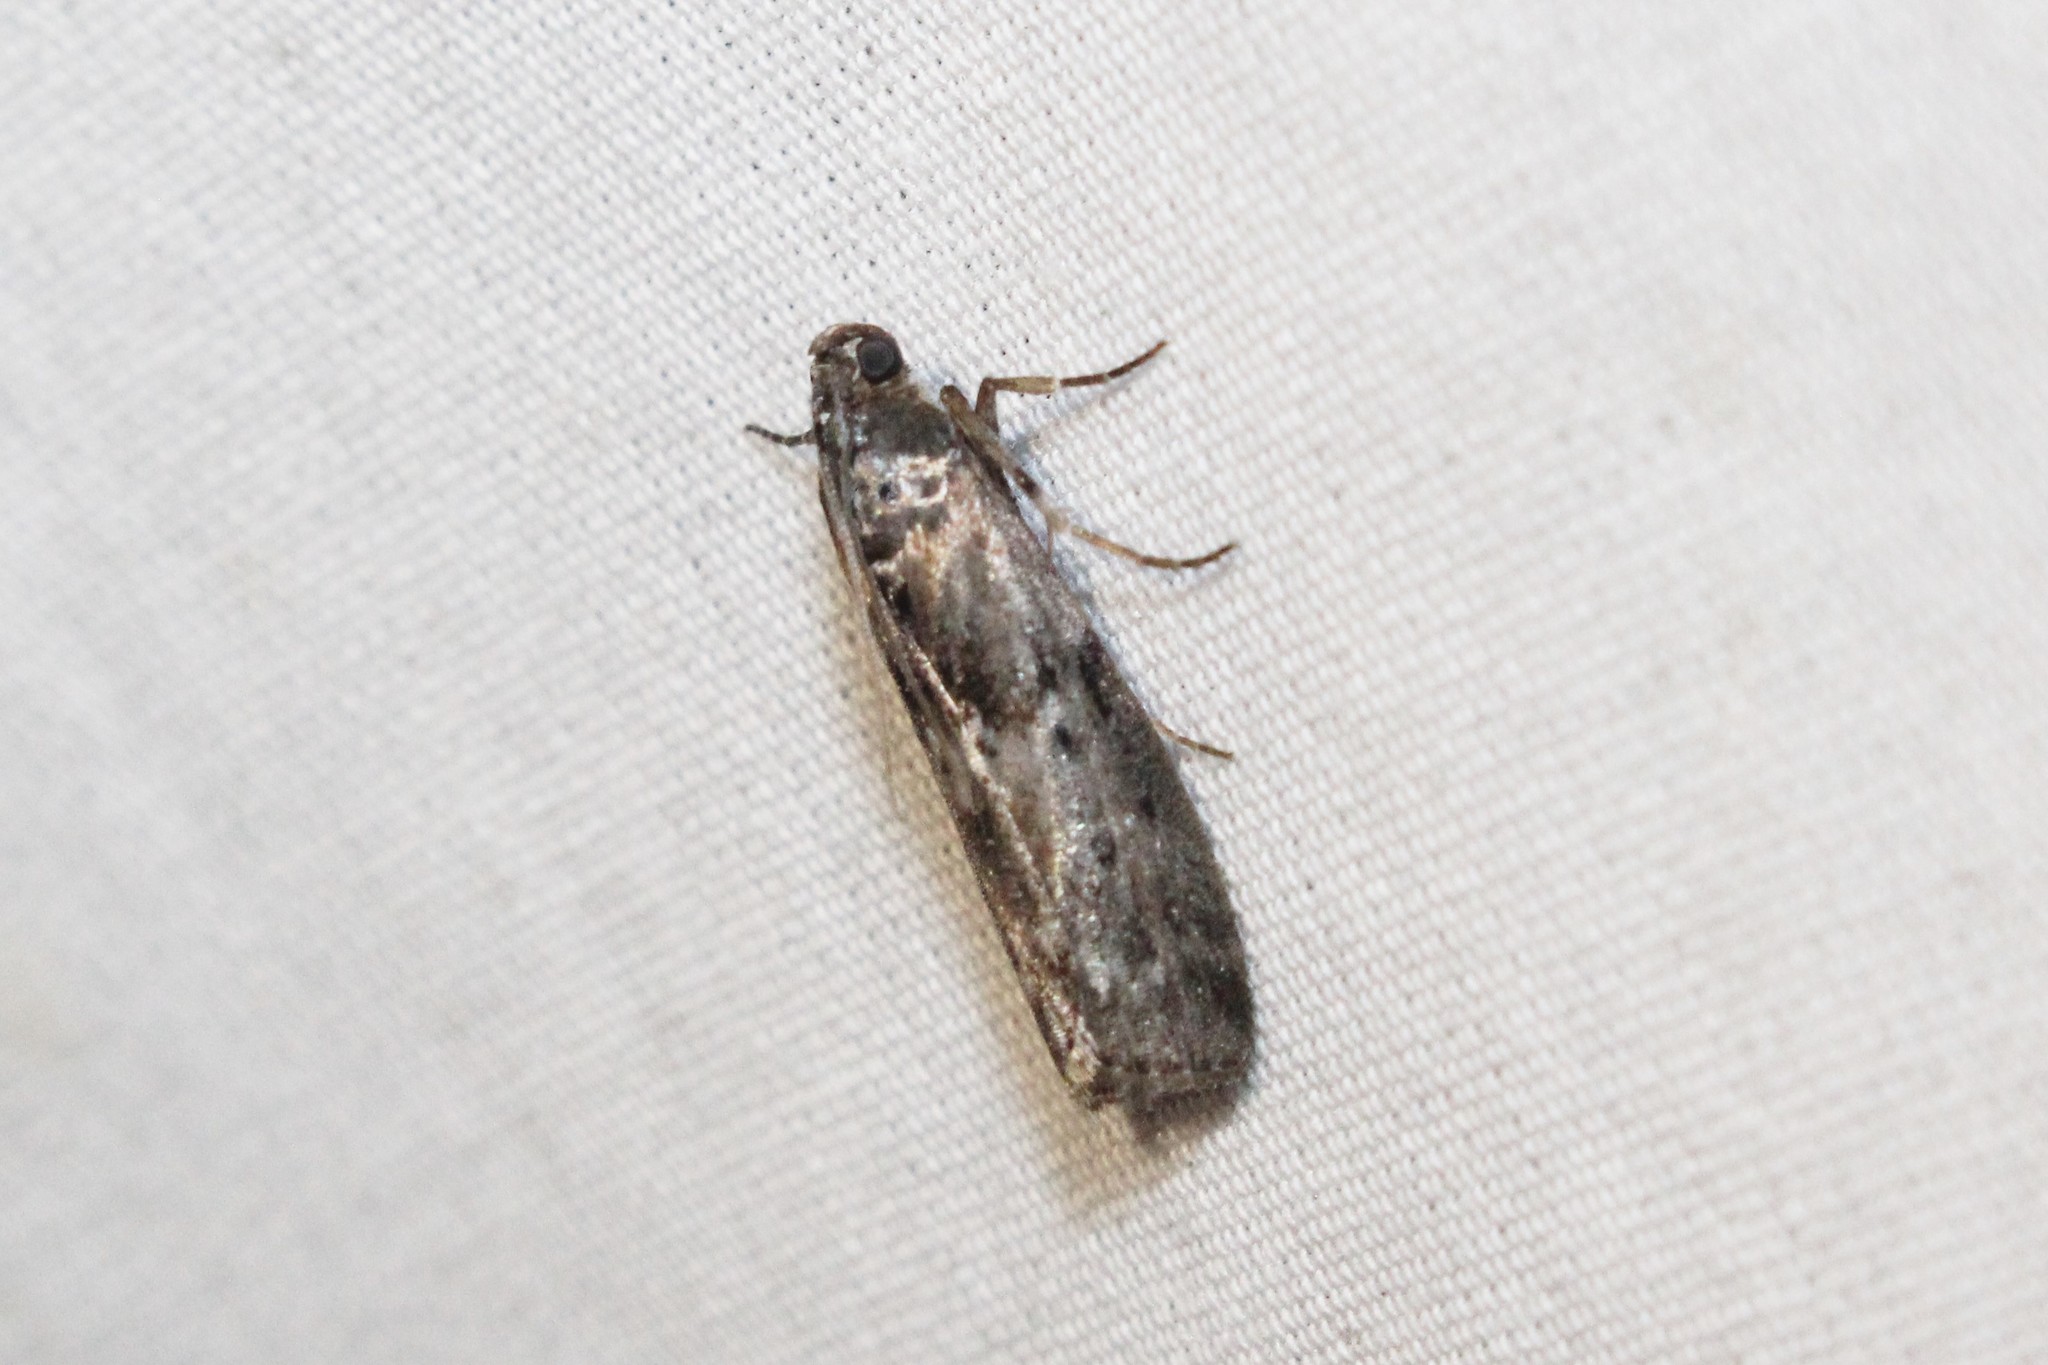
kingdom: Animalia
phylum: Arthropoda
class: Insecta
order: Lepidoptera
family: Pyralidae
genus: Sciota
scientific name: Sciota virgatella
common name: Black-spotted leafroller moth
